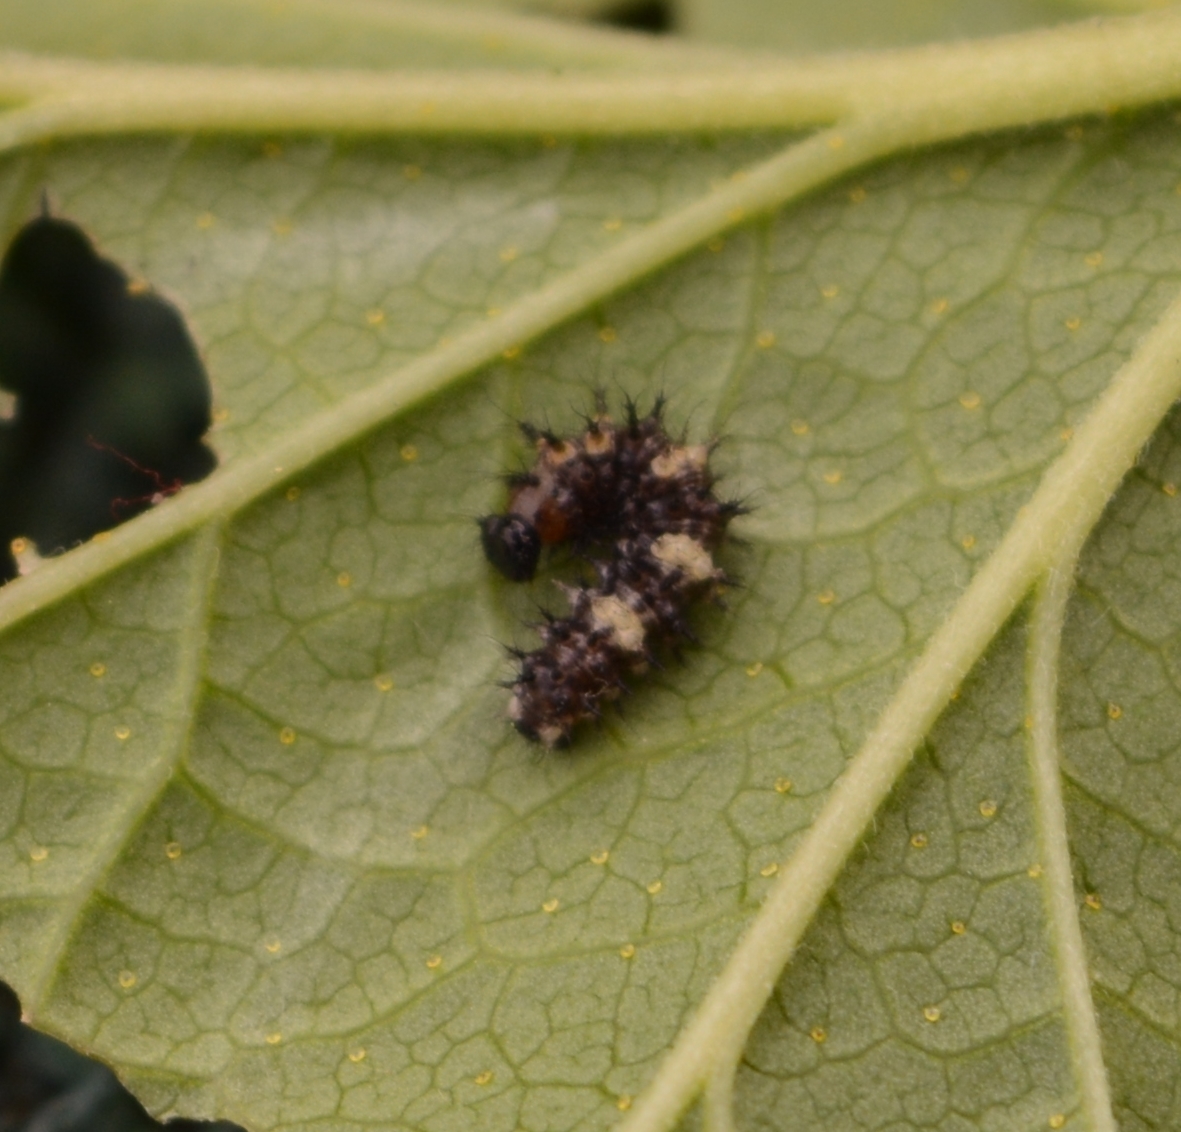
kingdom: Animalia
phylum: Arthropoda
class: Insecta
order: Lepidoptera
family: Nymphalidae
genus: Polygonia
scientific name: Polygonia c-album
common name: Comma
